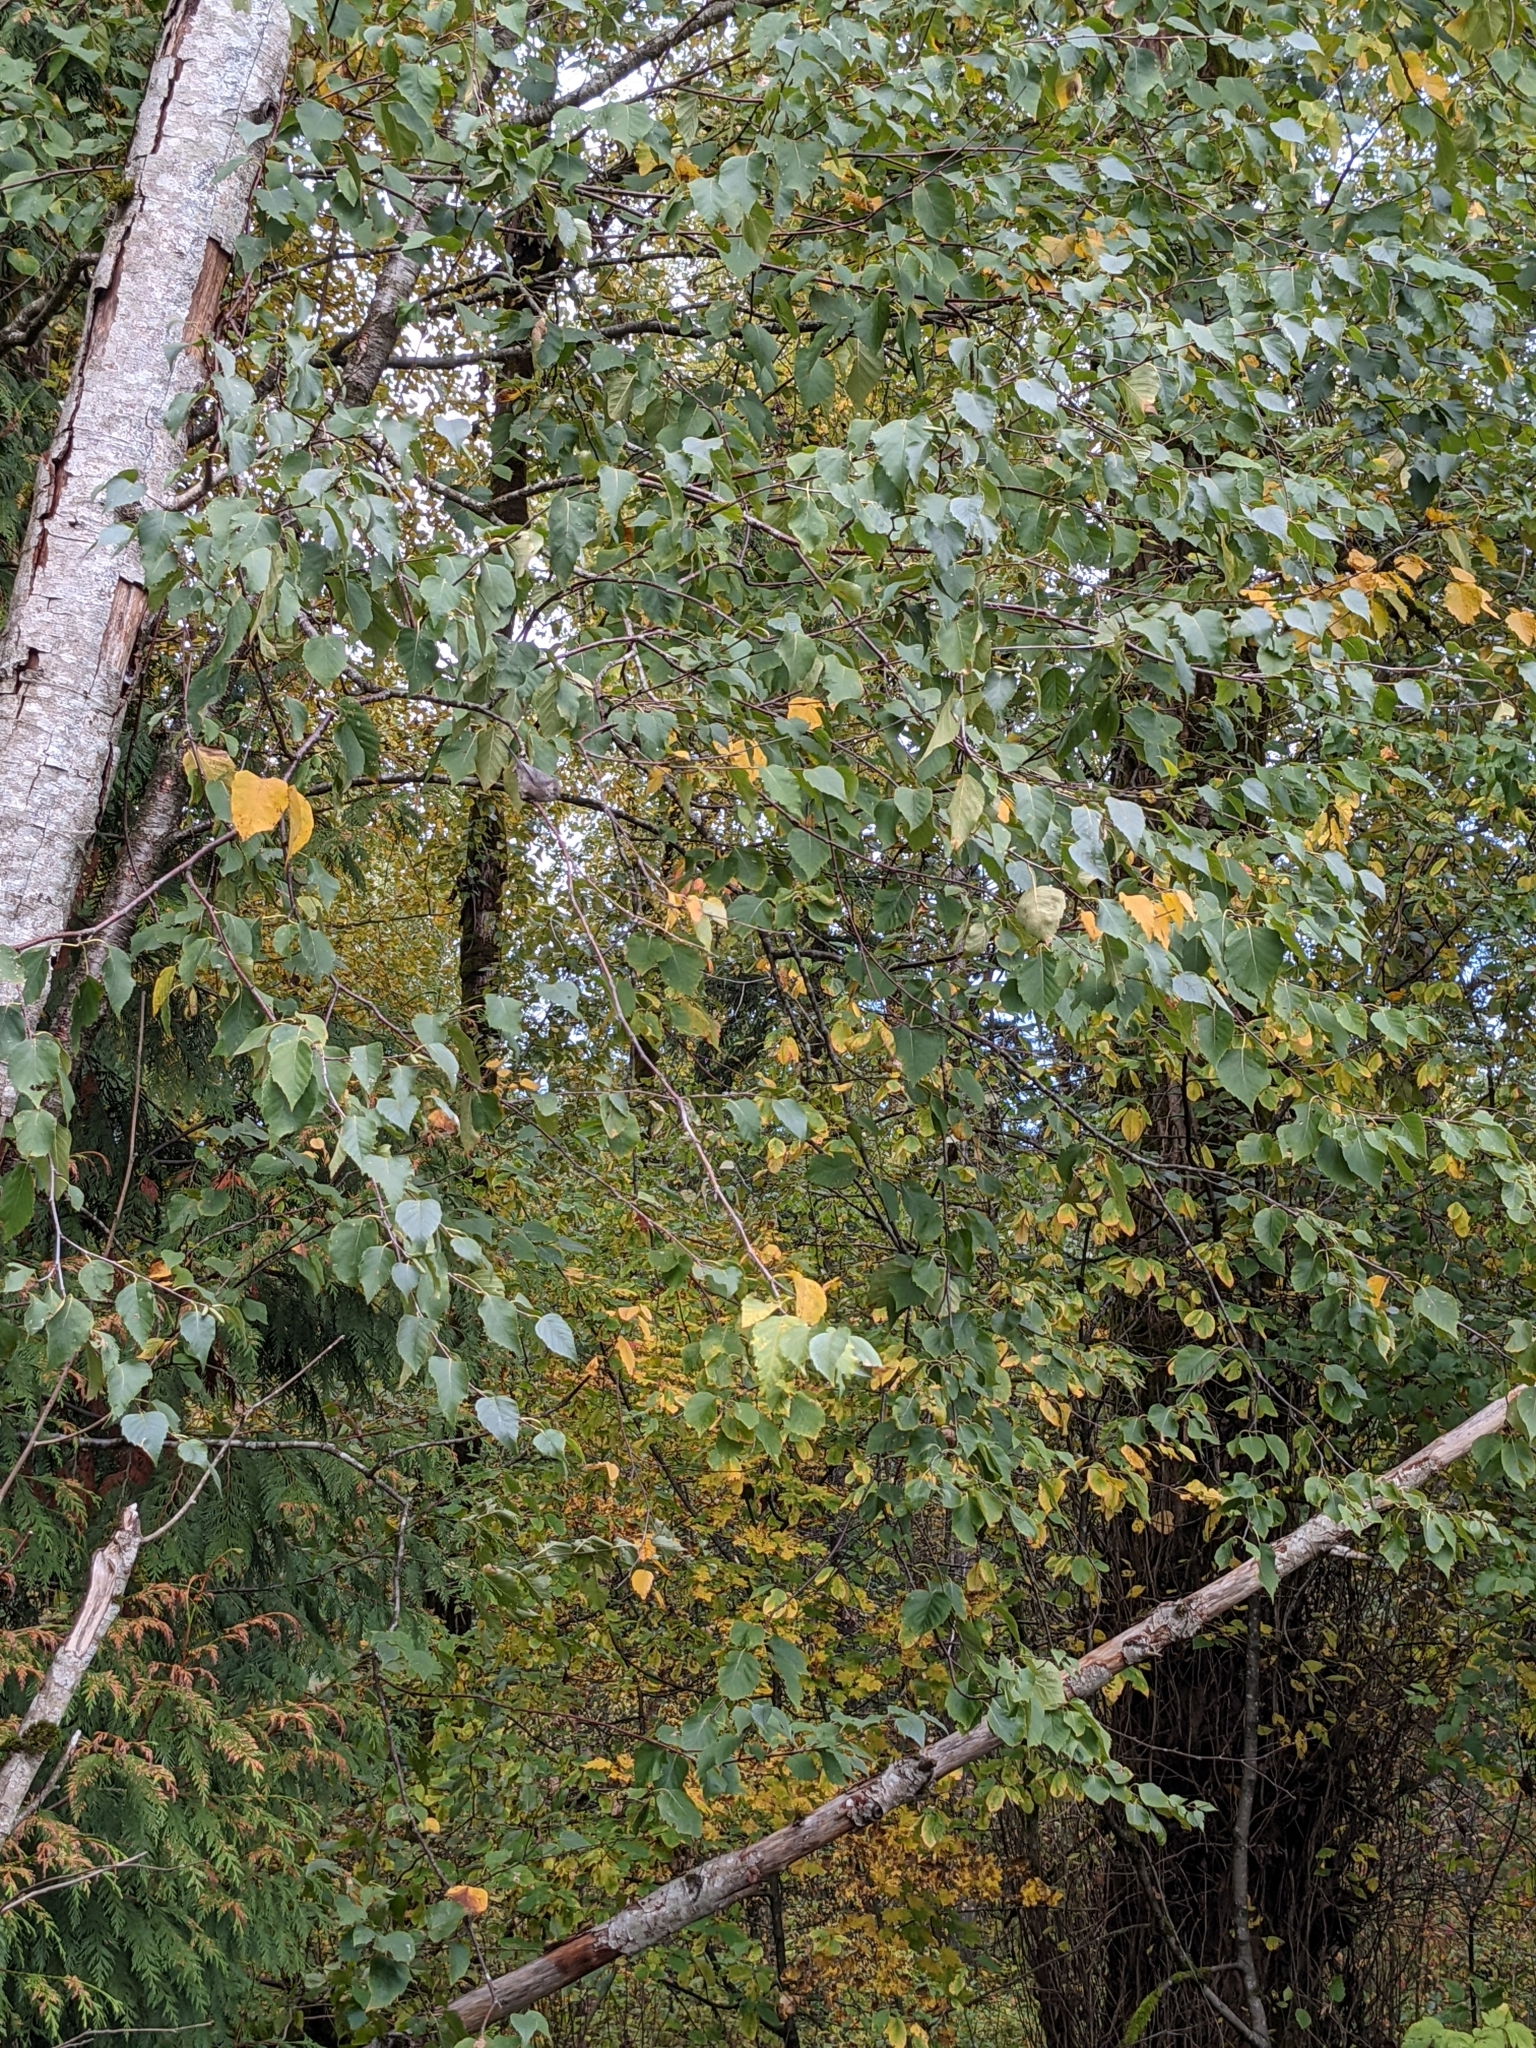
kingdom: Animalia
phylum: Chordata
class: Aves
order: Passeriformes
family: Aegithalidae
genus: Psaltriparus
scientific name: Psaltriparus minimus
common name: American bushtit
